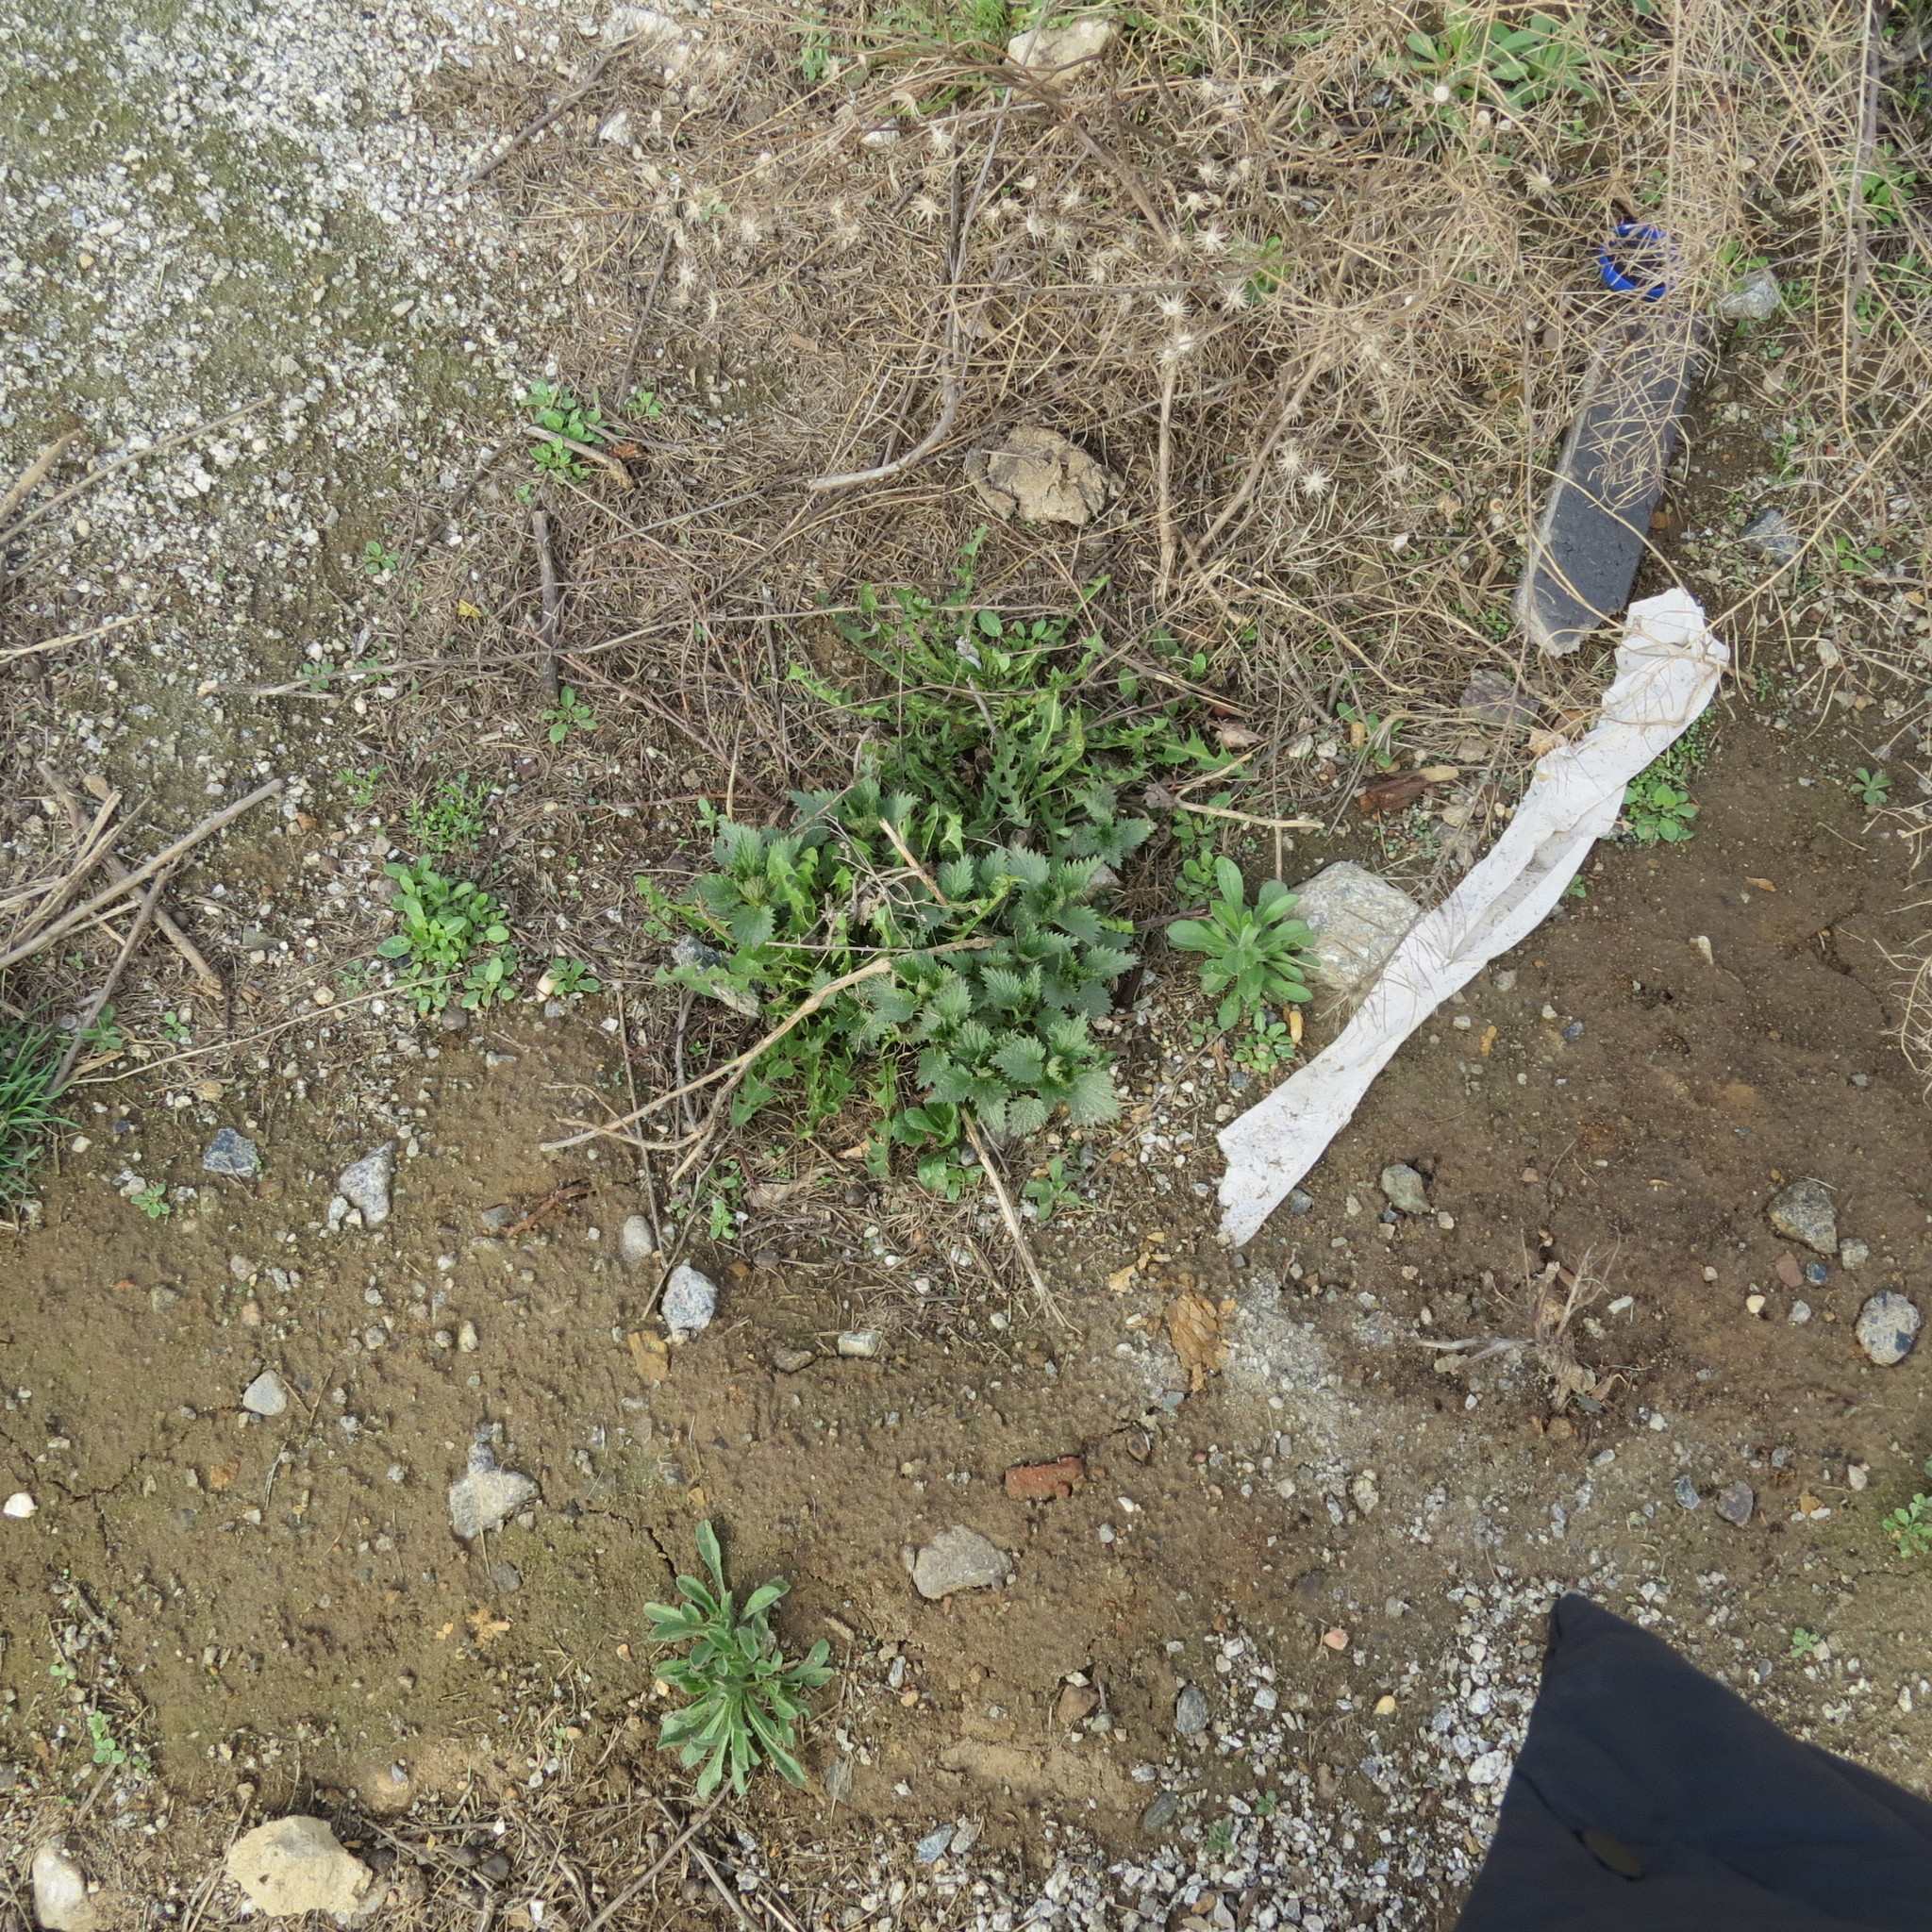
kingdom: Plantae
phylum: Tracheophyta
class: Magnoliopsida
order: Rosales
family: Urticaceae
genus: Urtica
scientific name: Urtica dioica
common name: Common nettle
